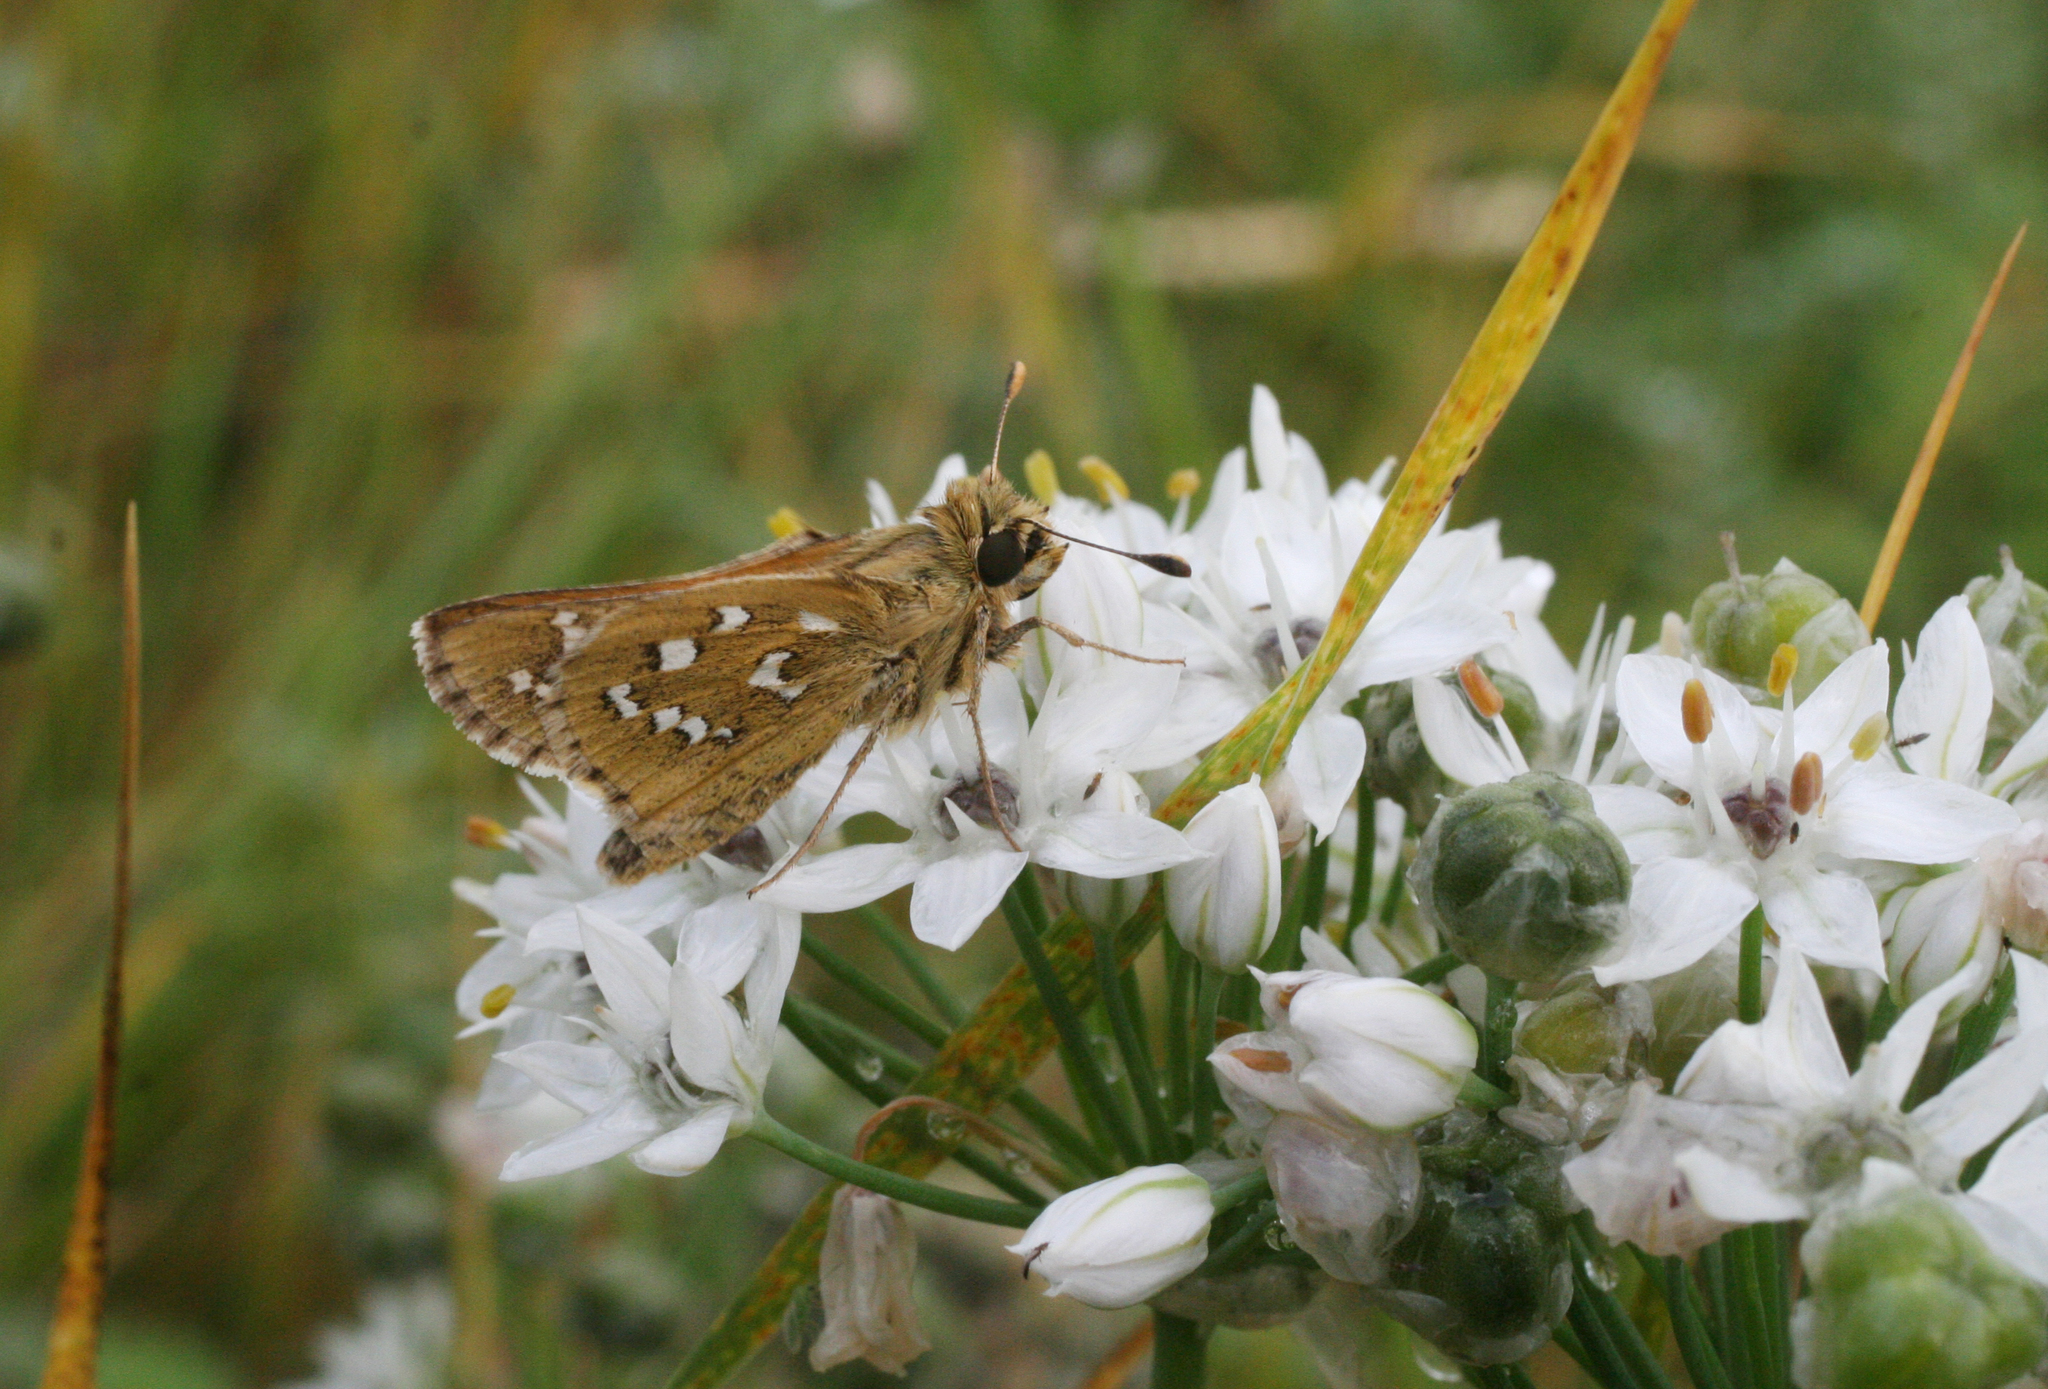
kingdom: Plantae
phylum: Tracheophyta
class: Liliopsida
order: Asparagales
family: Amaryllidaceae
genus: Allium
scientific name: Allium ramosum
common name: Fragrant garlic
